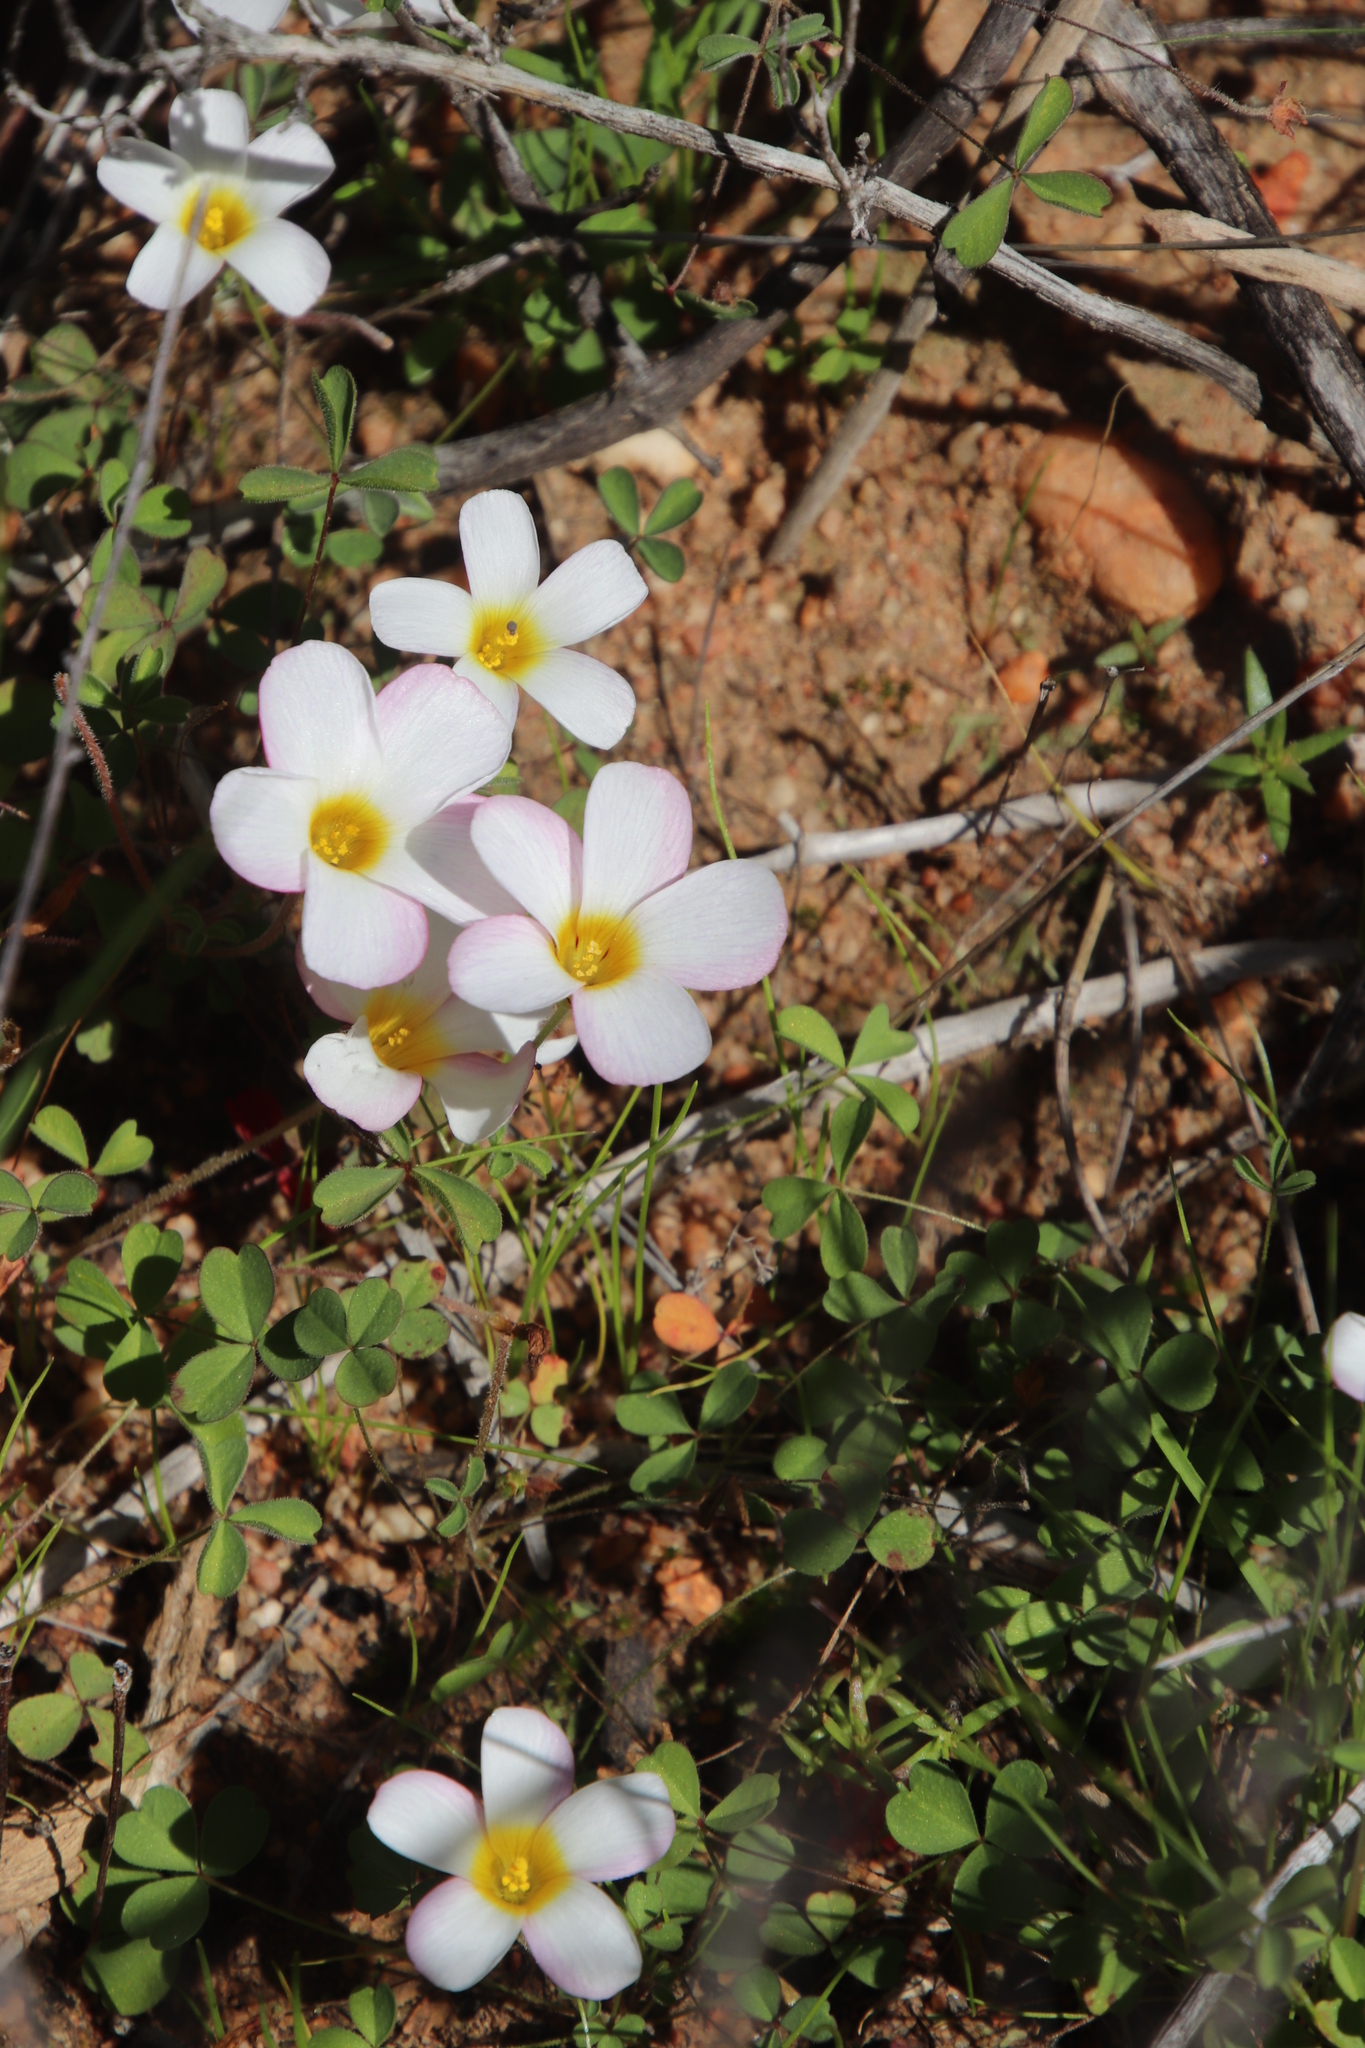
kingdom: Plantae
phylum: Tracheophyta
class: Magnoliopsida
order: Oxalidales
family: Oxalidaceae
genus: Oxalis
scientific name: Oxalis tenella
